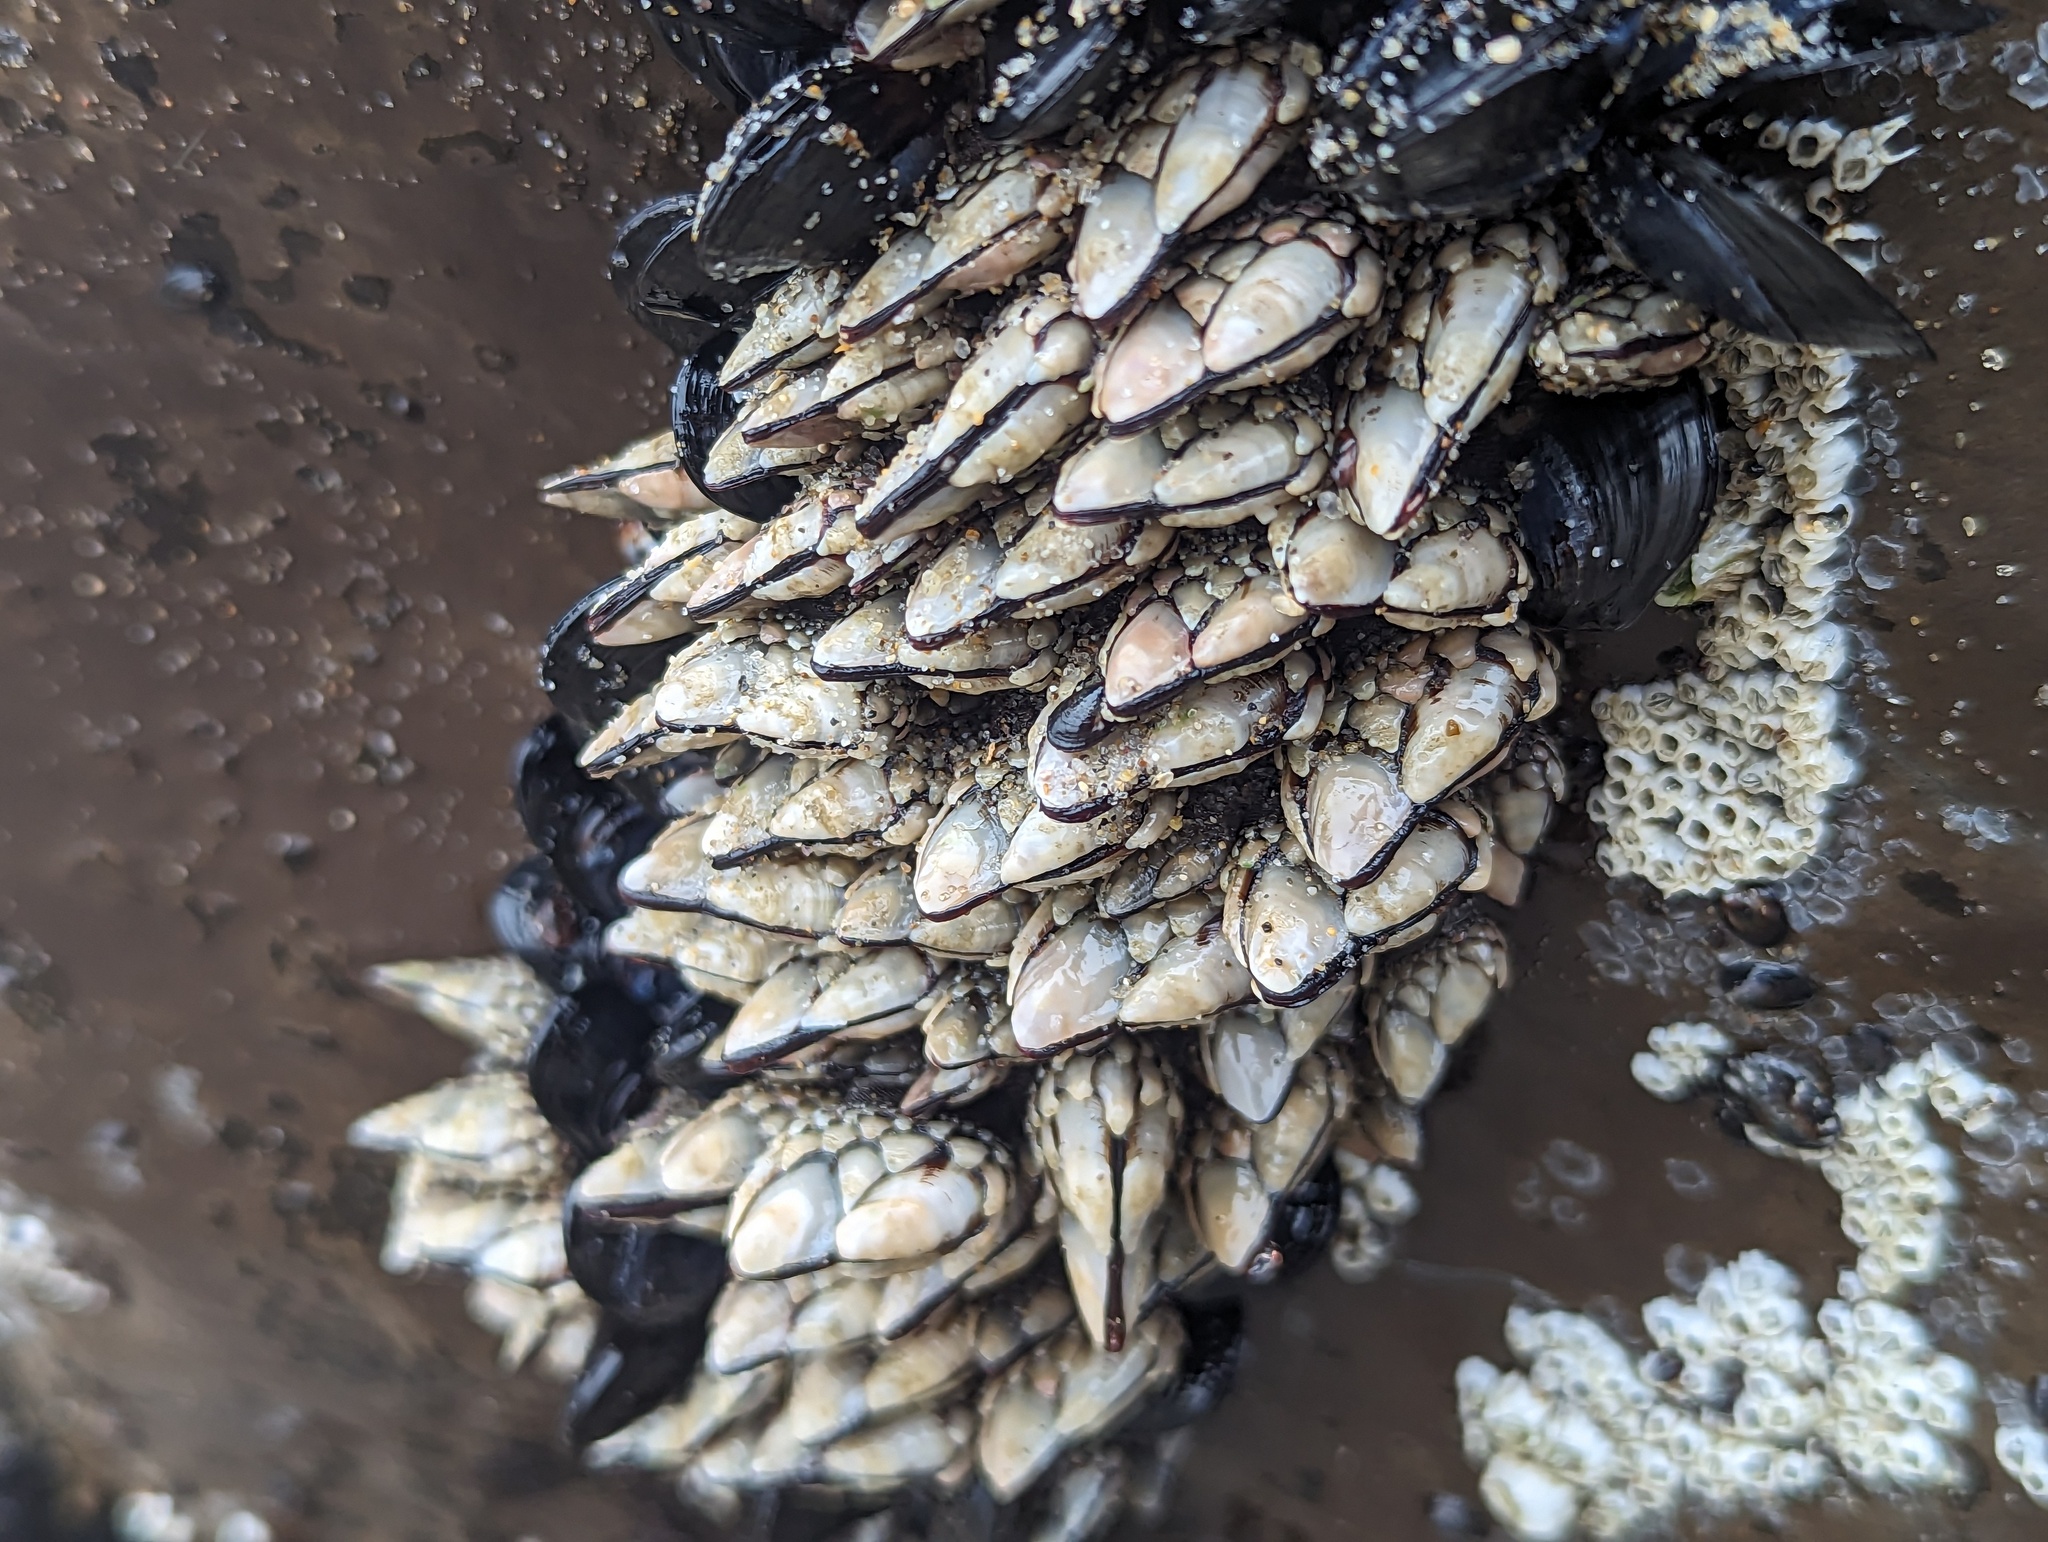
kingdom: Animalia
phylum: Arthropoda
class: Maxillopoda
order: Pedunculata
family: Pollicipedidae
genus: Pollicipes
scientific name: Pollicipes polymerus
